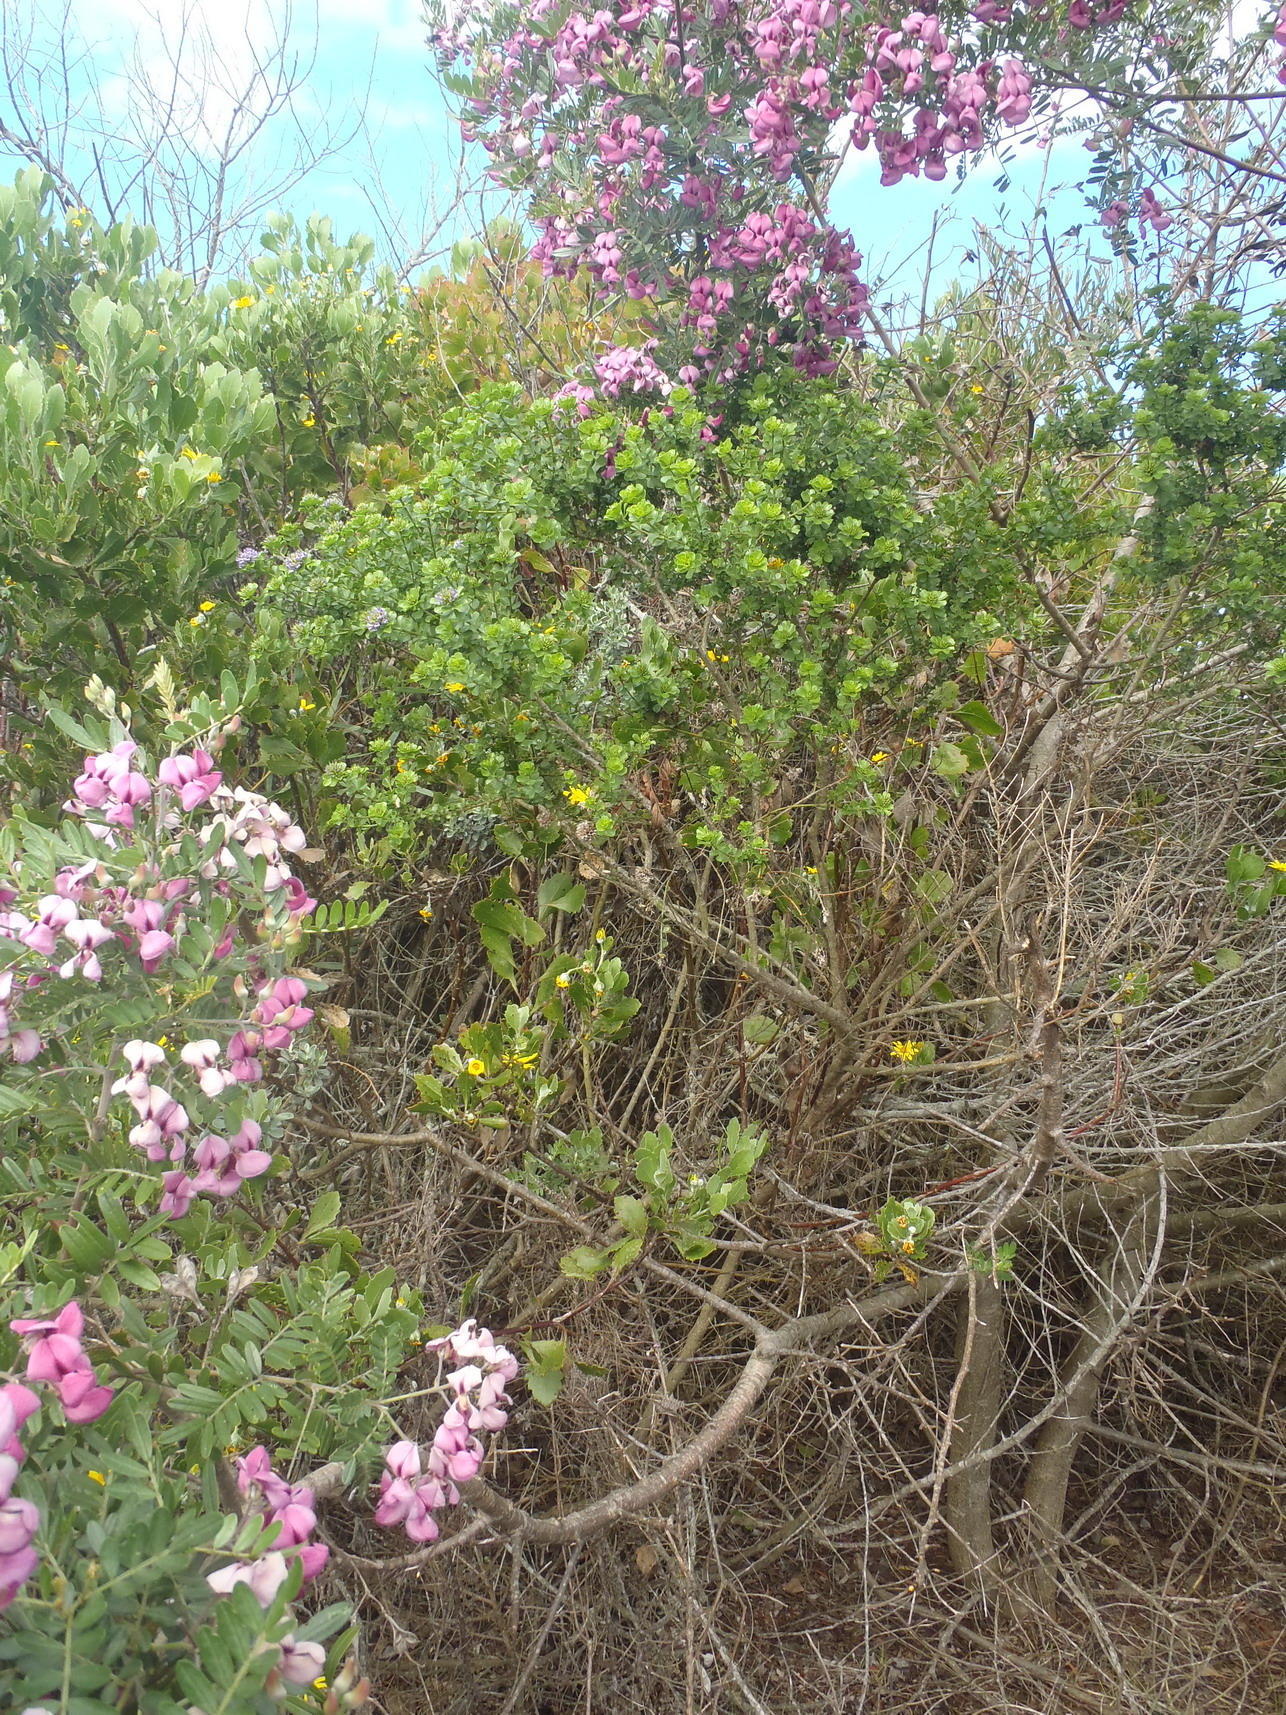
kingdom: Plantae
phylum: Tracheophyta
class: Magnoliopsida
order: Fabales
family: Fabaceae
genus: Psoralea
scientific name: Psoralea acuminata
